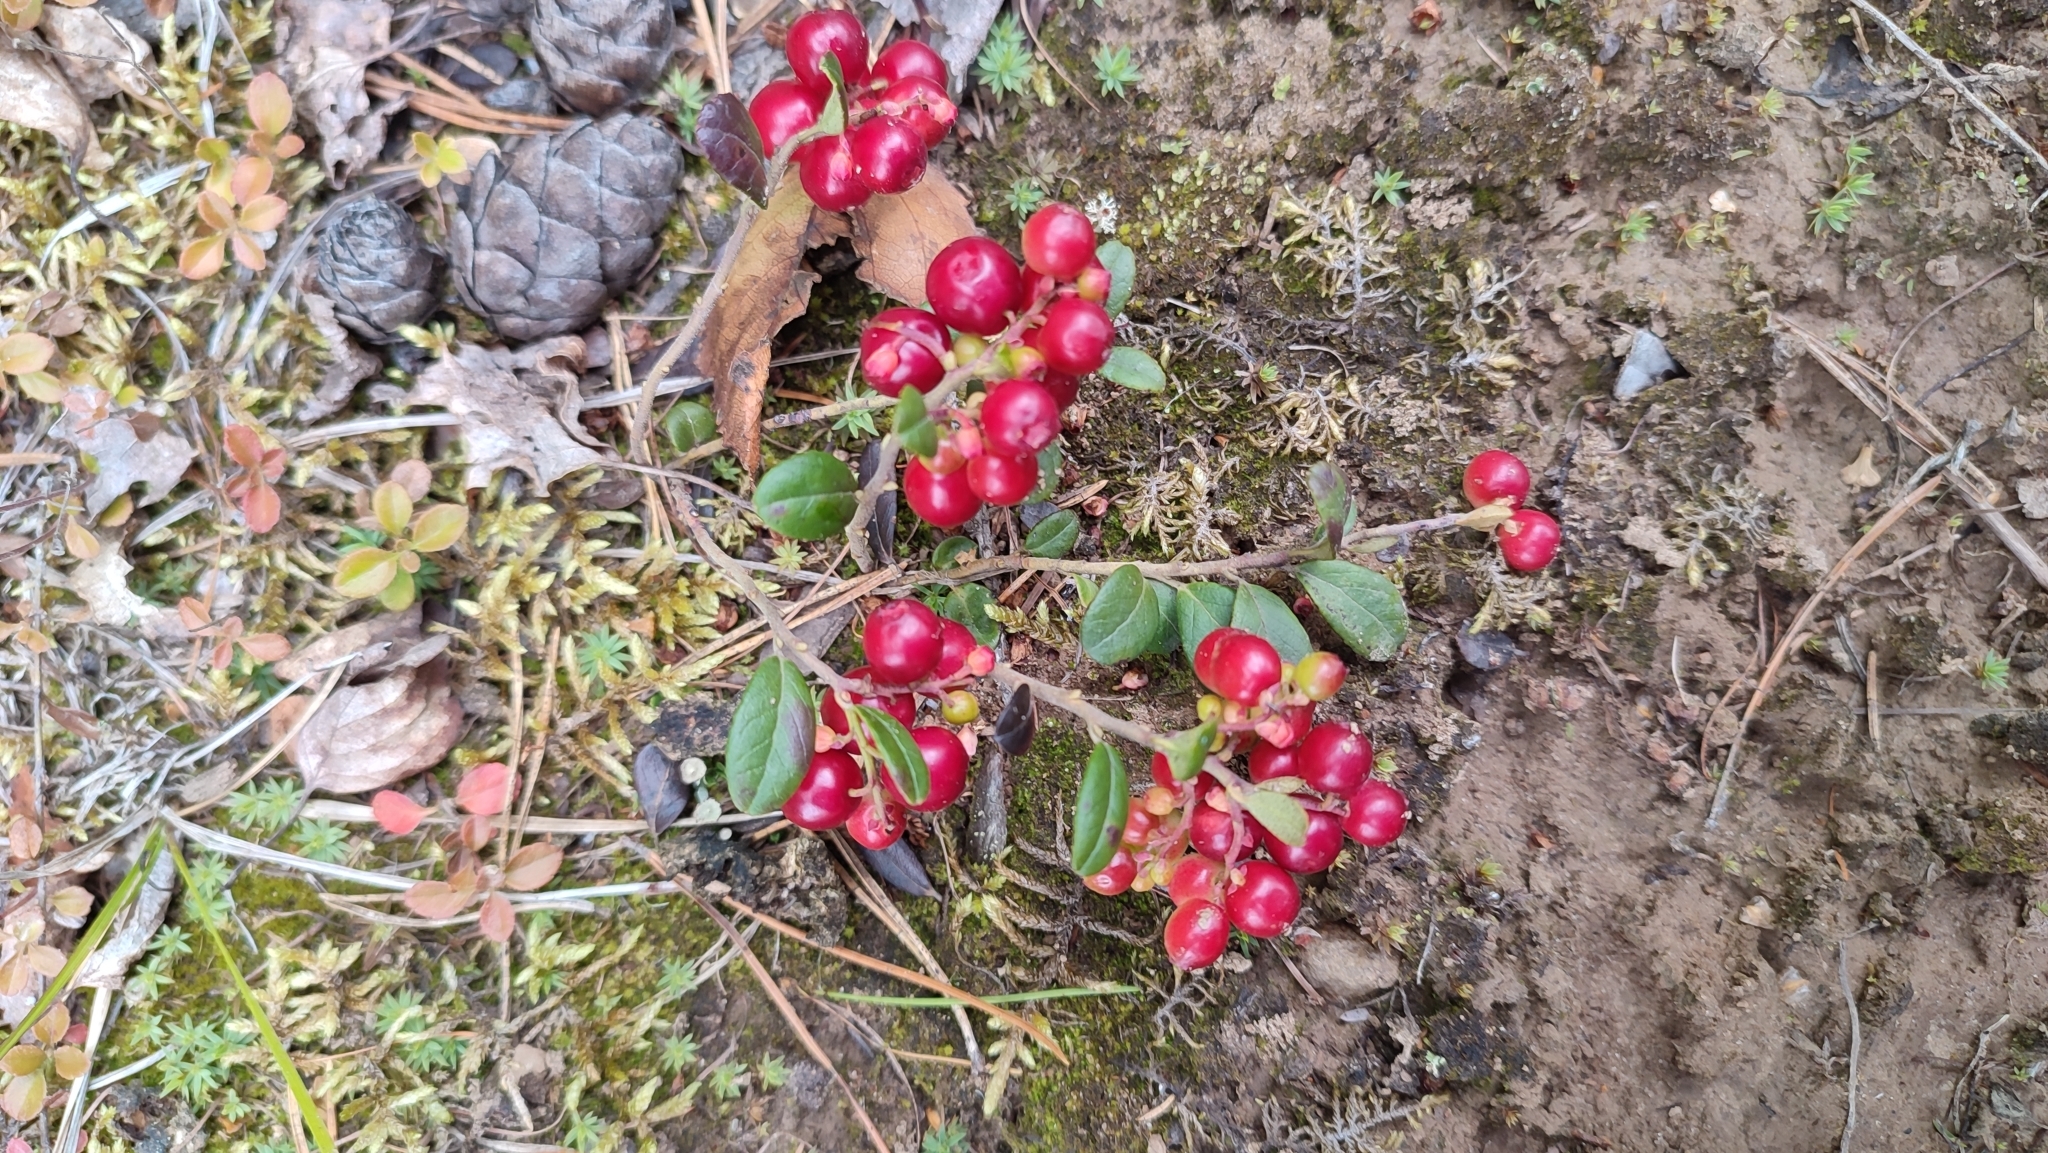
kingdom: Plantae
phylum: Tracheophyta
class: Magnoliopsida
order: Ericales
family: Ericaceae
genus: Vaccinium
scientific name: Vaccinium vitis-idaea
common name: Cowberry
